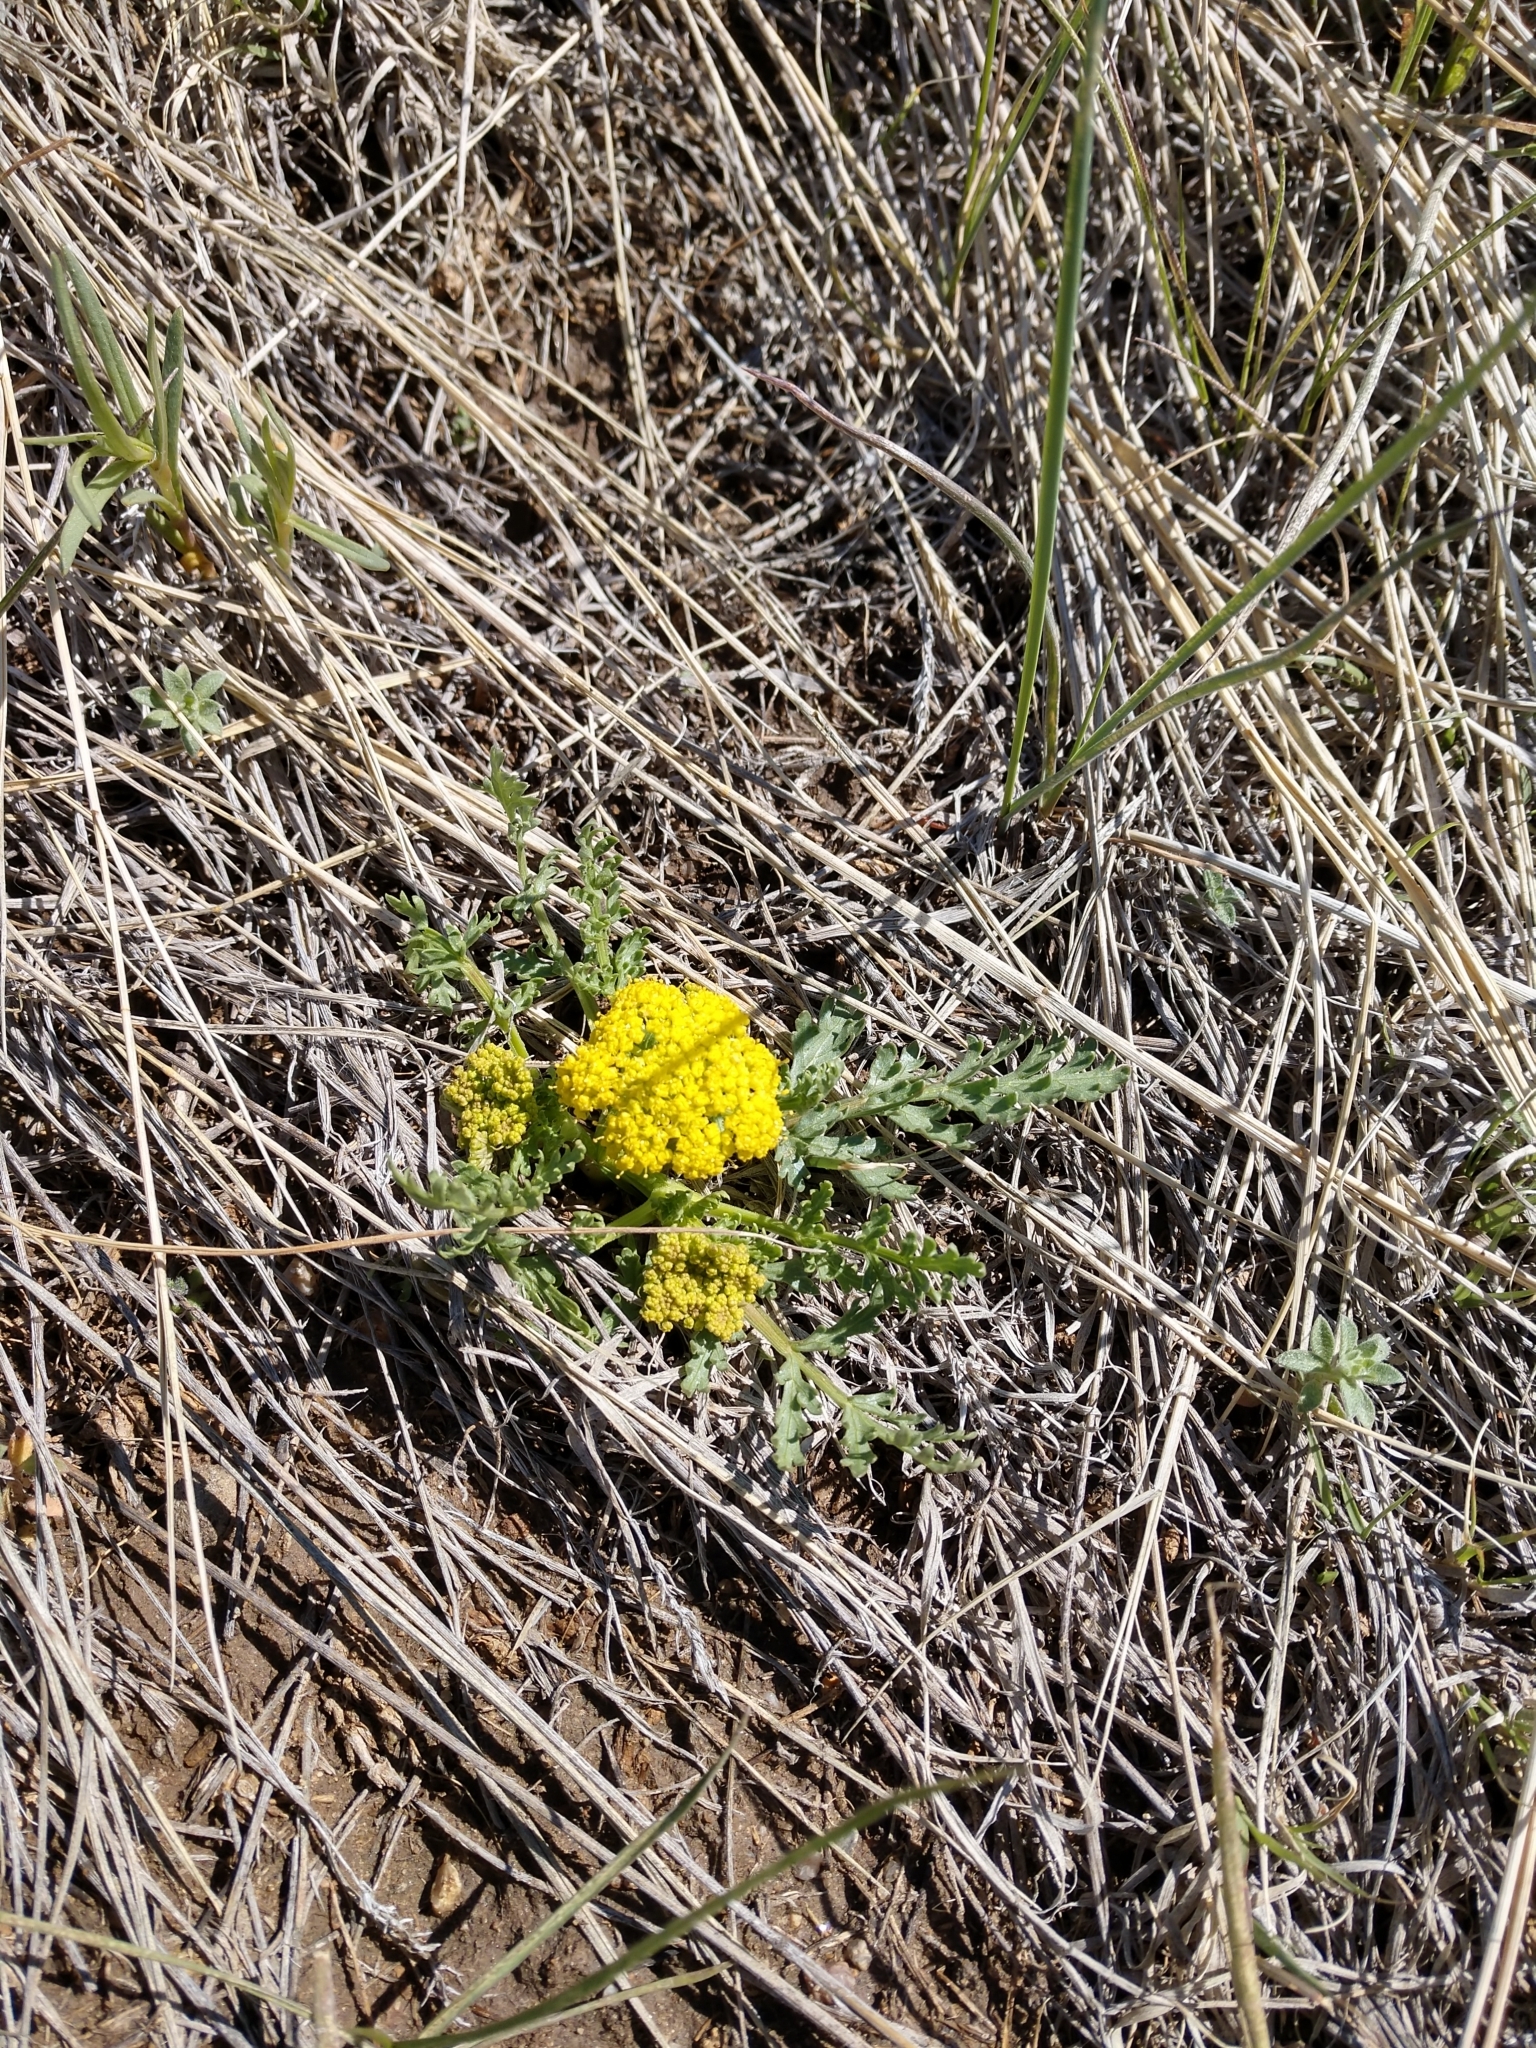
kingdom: Plantae
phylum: Tracheophyta
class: Magnoliopsida
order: Apiales
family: Apiaceae
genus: Musineon
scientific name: Musineon divaricatum
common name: Plains musineon
